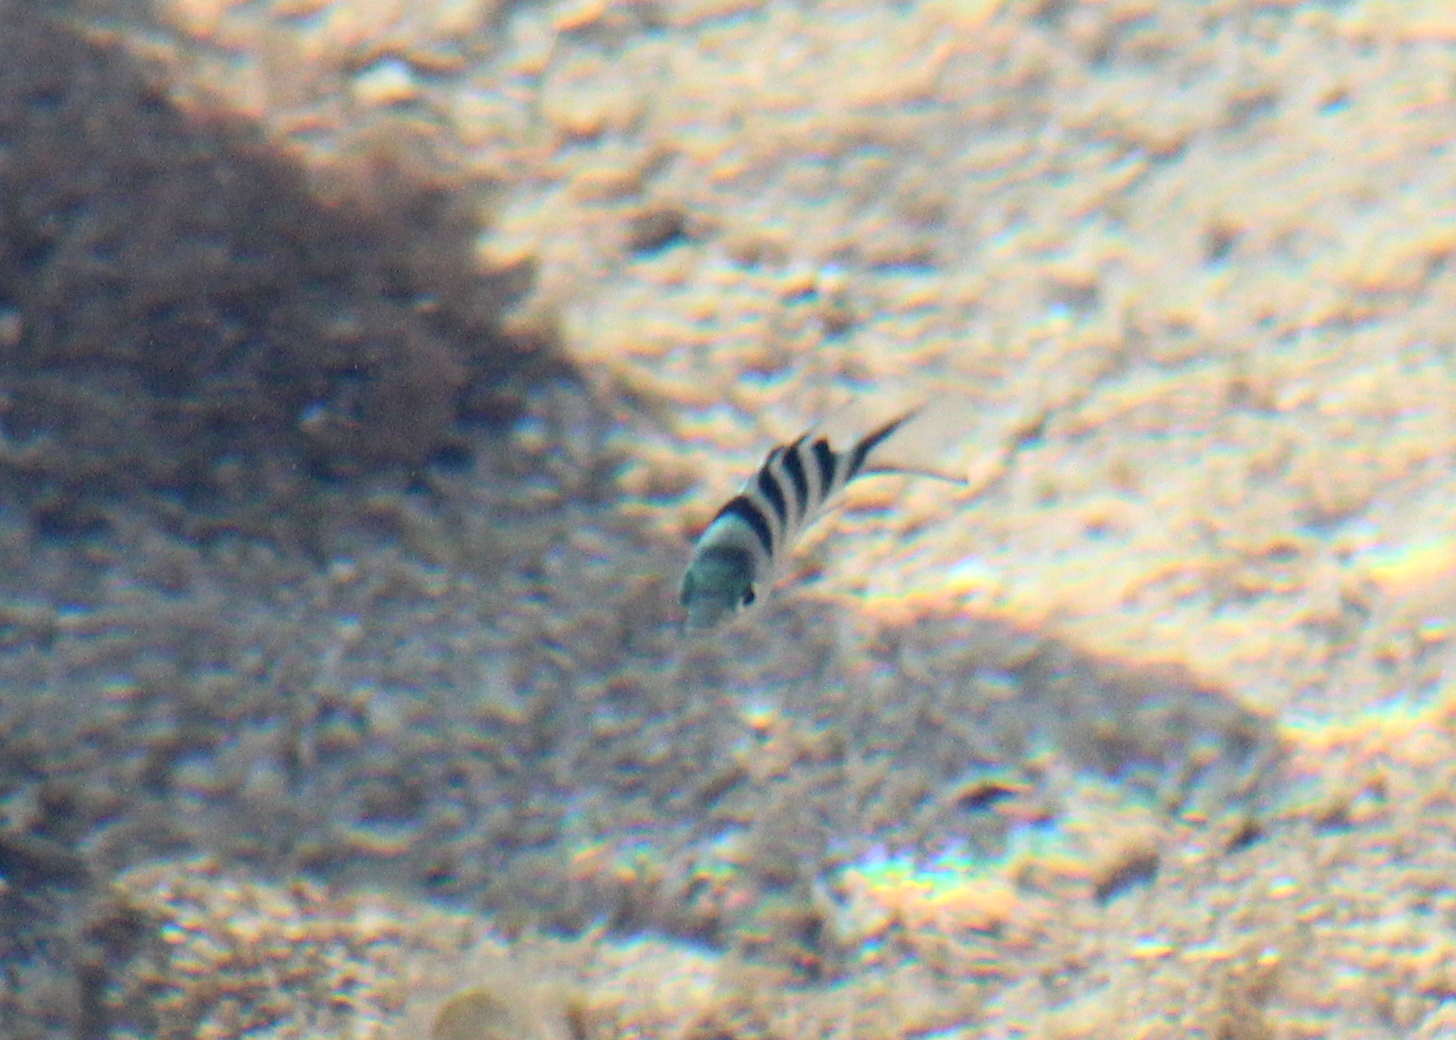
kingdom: Animalia
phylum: Chordata
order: Perciformes
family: Pomacentridae
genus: Abudefduf
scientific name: Abudefduf sexfasciatus
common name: Scissortail sergeant
